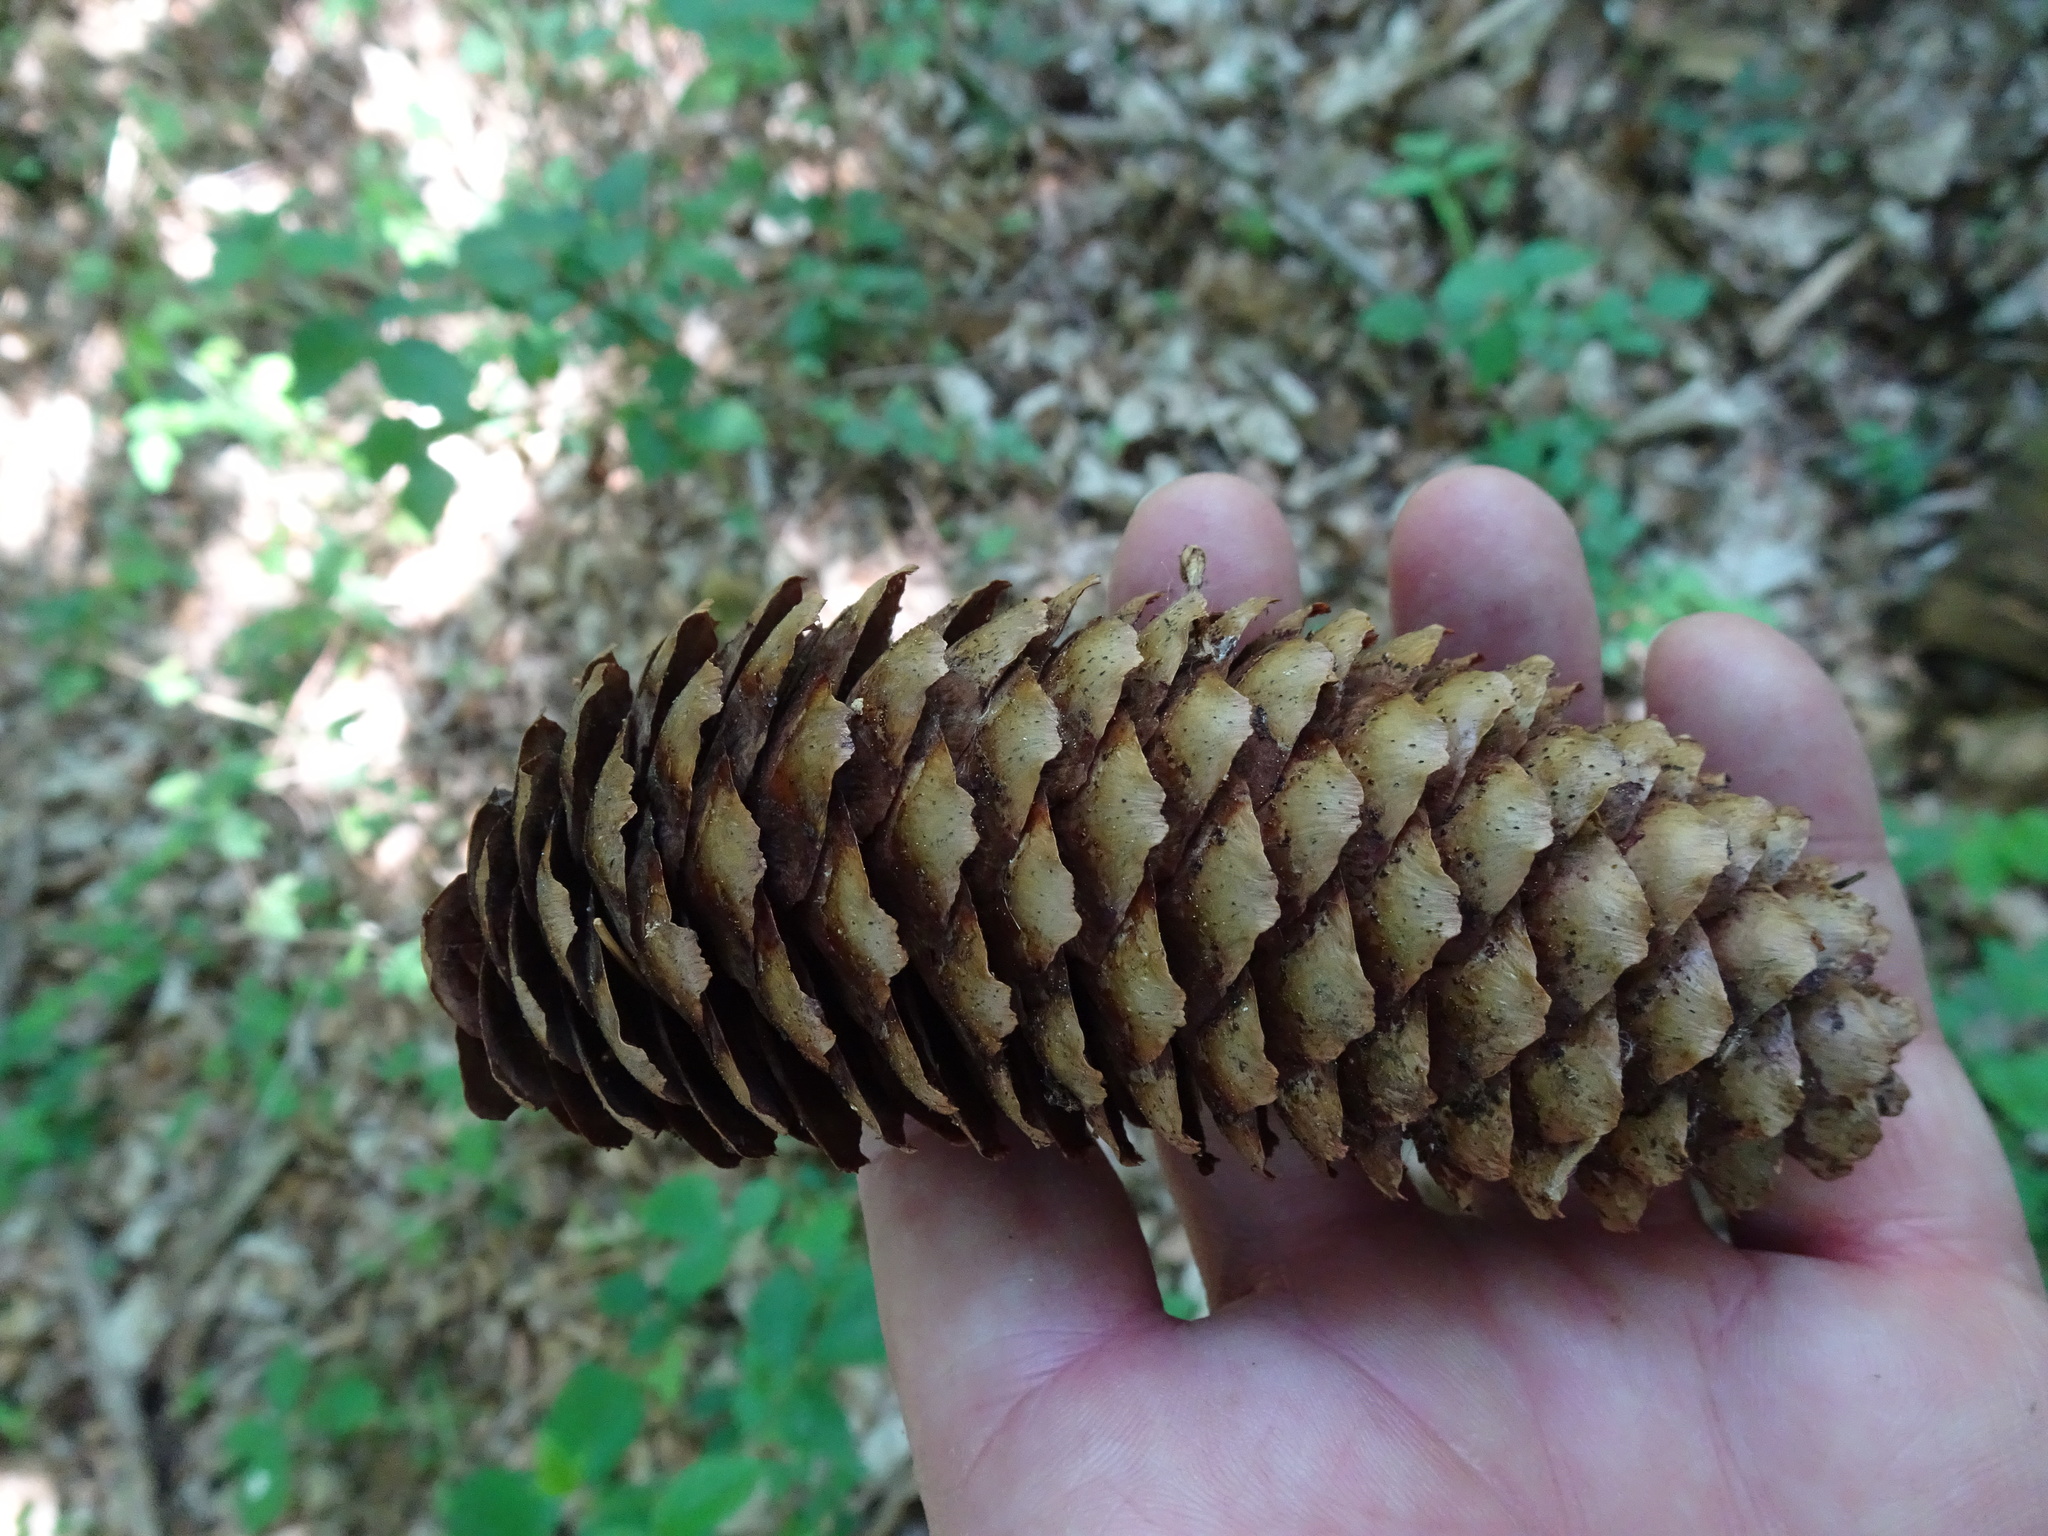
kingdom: Plantae
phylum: Tracheophyta
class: Pinopsida
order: Pinales
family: Pinaceae
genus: Picea
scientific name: Picea abies
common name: Norway spruce
